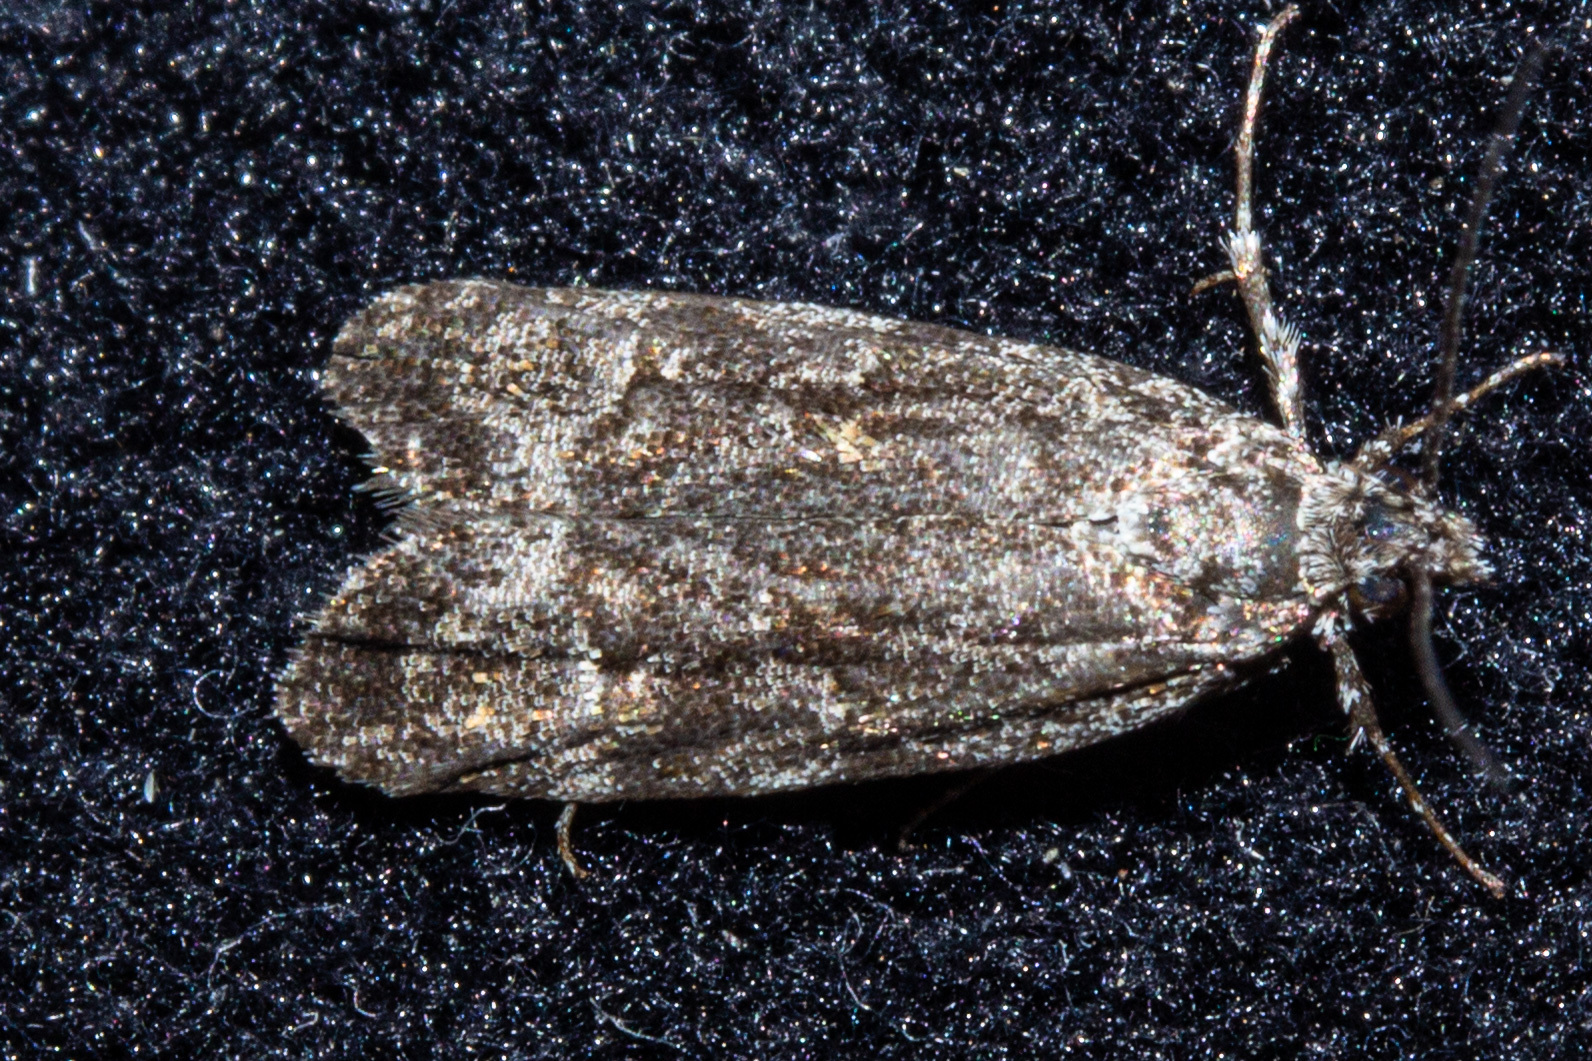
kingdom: Animalia
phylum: Arthropoda
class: Insecta
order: Lepidoptera
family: Oecophoridae
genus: Izatha
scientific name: Izatha copiosella
